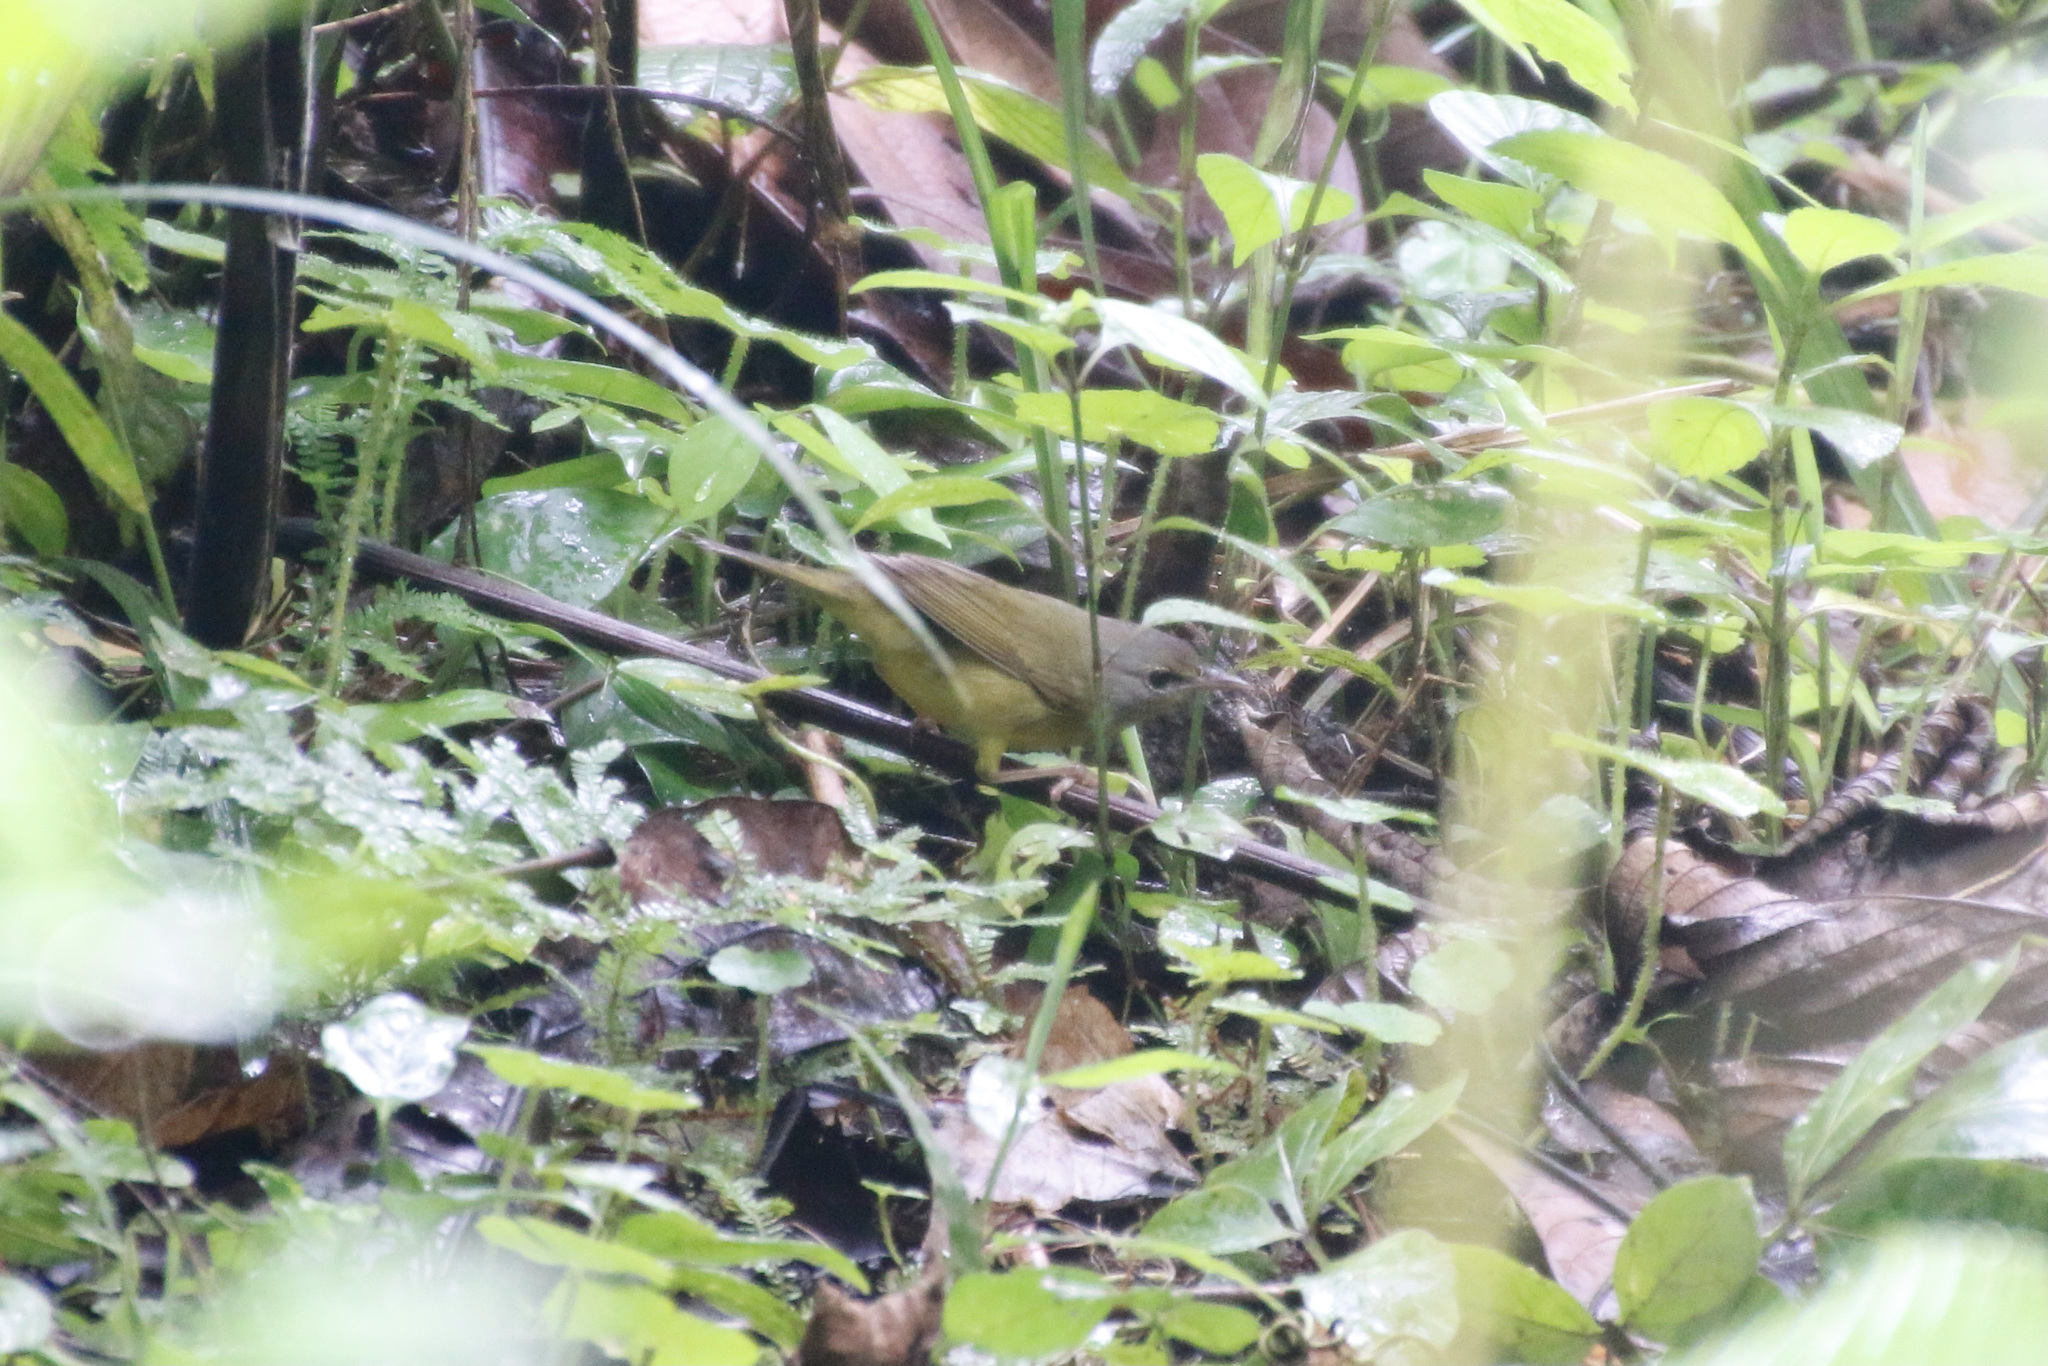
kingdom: Animalia
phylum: Chordata
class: Aves
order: Passeriformes
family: Parulidae
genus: Geothlypis
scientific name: Geothlypis philadelphia
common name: Mourning warbler
